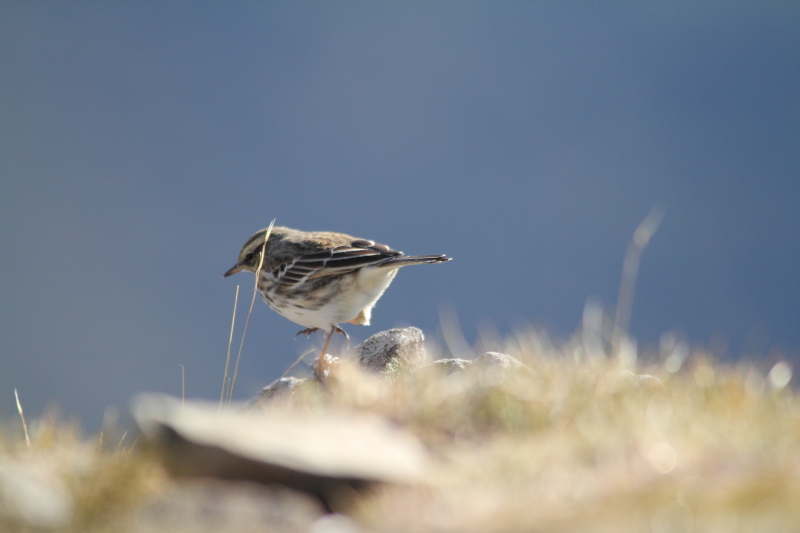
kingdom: Animalia
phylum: Chordata
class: Aves
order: Passeriformes
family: Motacillidae
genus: Anthus
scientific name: Anthus novaeseelandiae
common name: New zealand pipit
